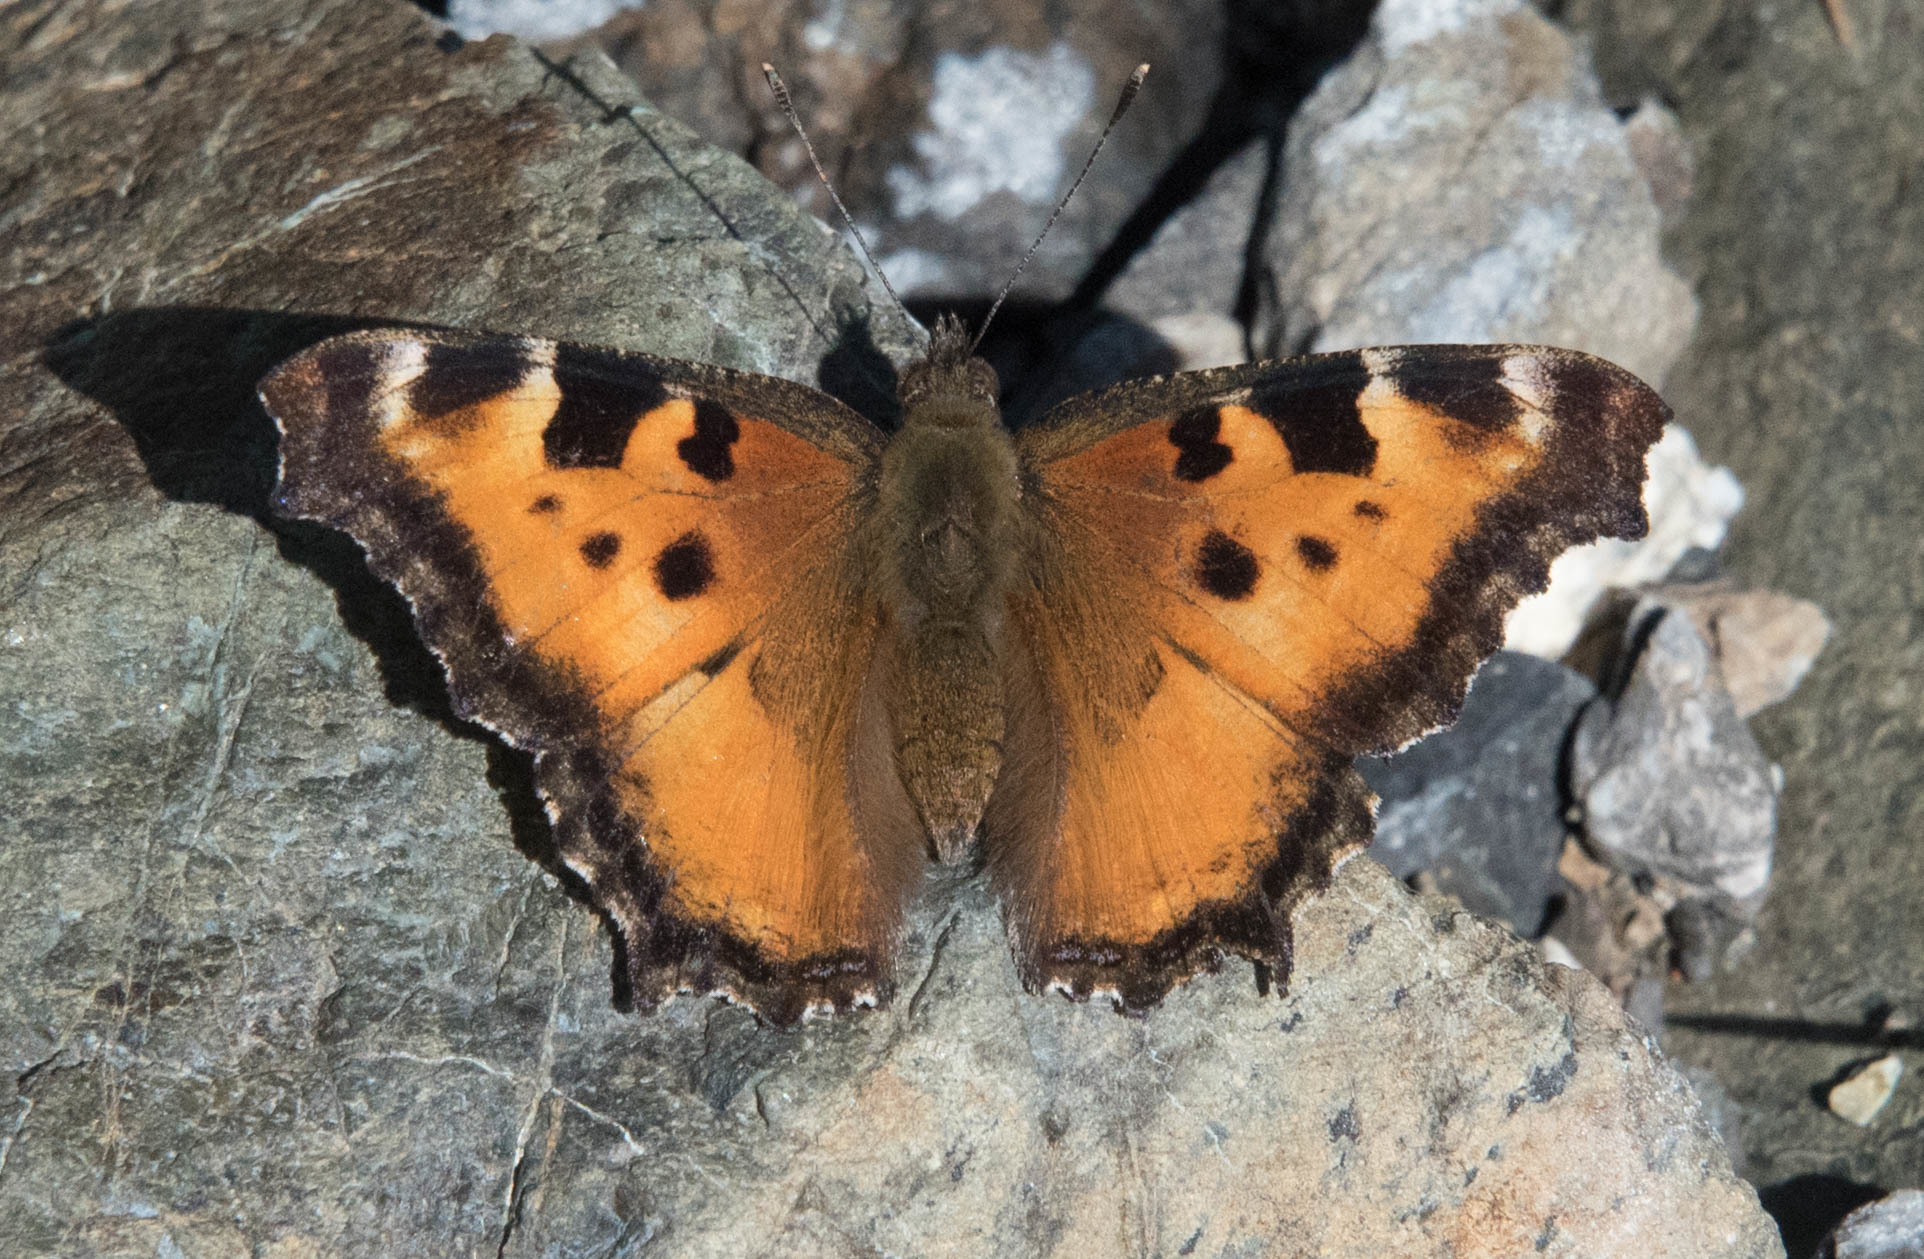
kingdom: Animalia
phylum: Arthropoda
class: Insecta
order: Lepidoptera
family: Nymphalidae
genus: Nymphalis
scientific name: Nymphalis californica
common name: California tortoiseshell
